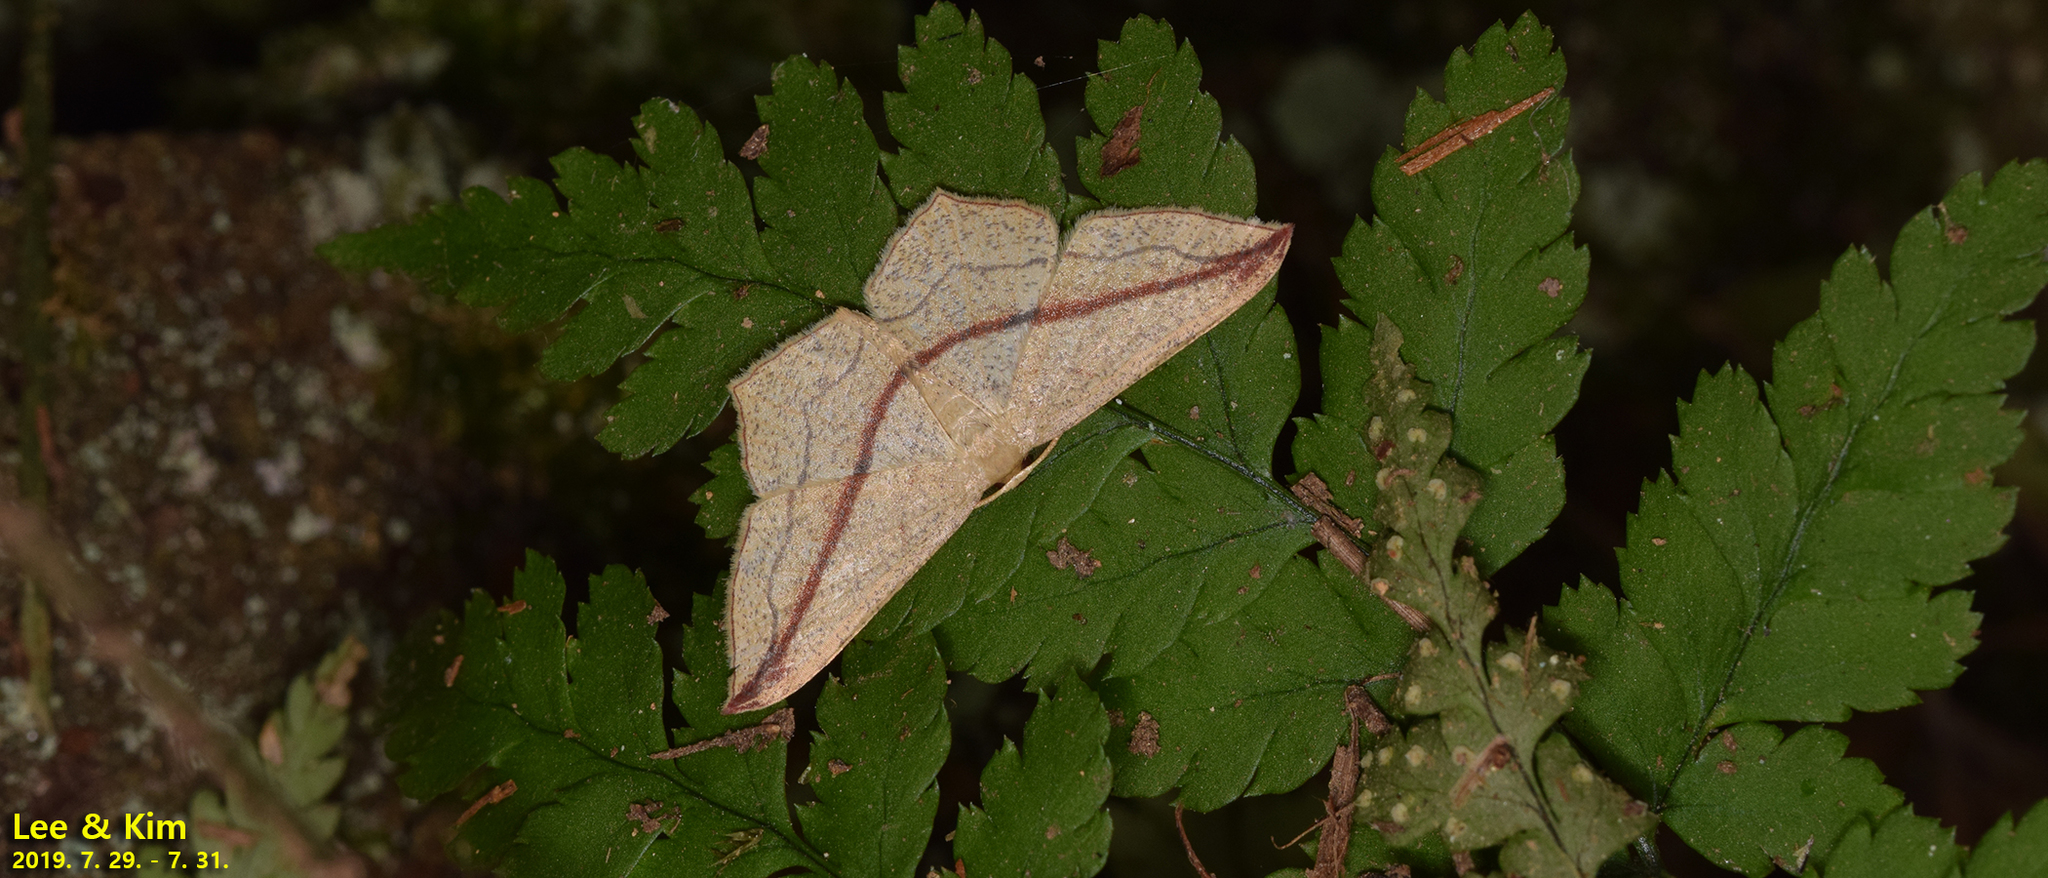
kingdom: Animalia
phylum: Arthropoda
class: Insecta
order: Lepidoptera
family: Geometridae
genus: Timandra
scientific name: Timandra apicirosea
